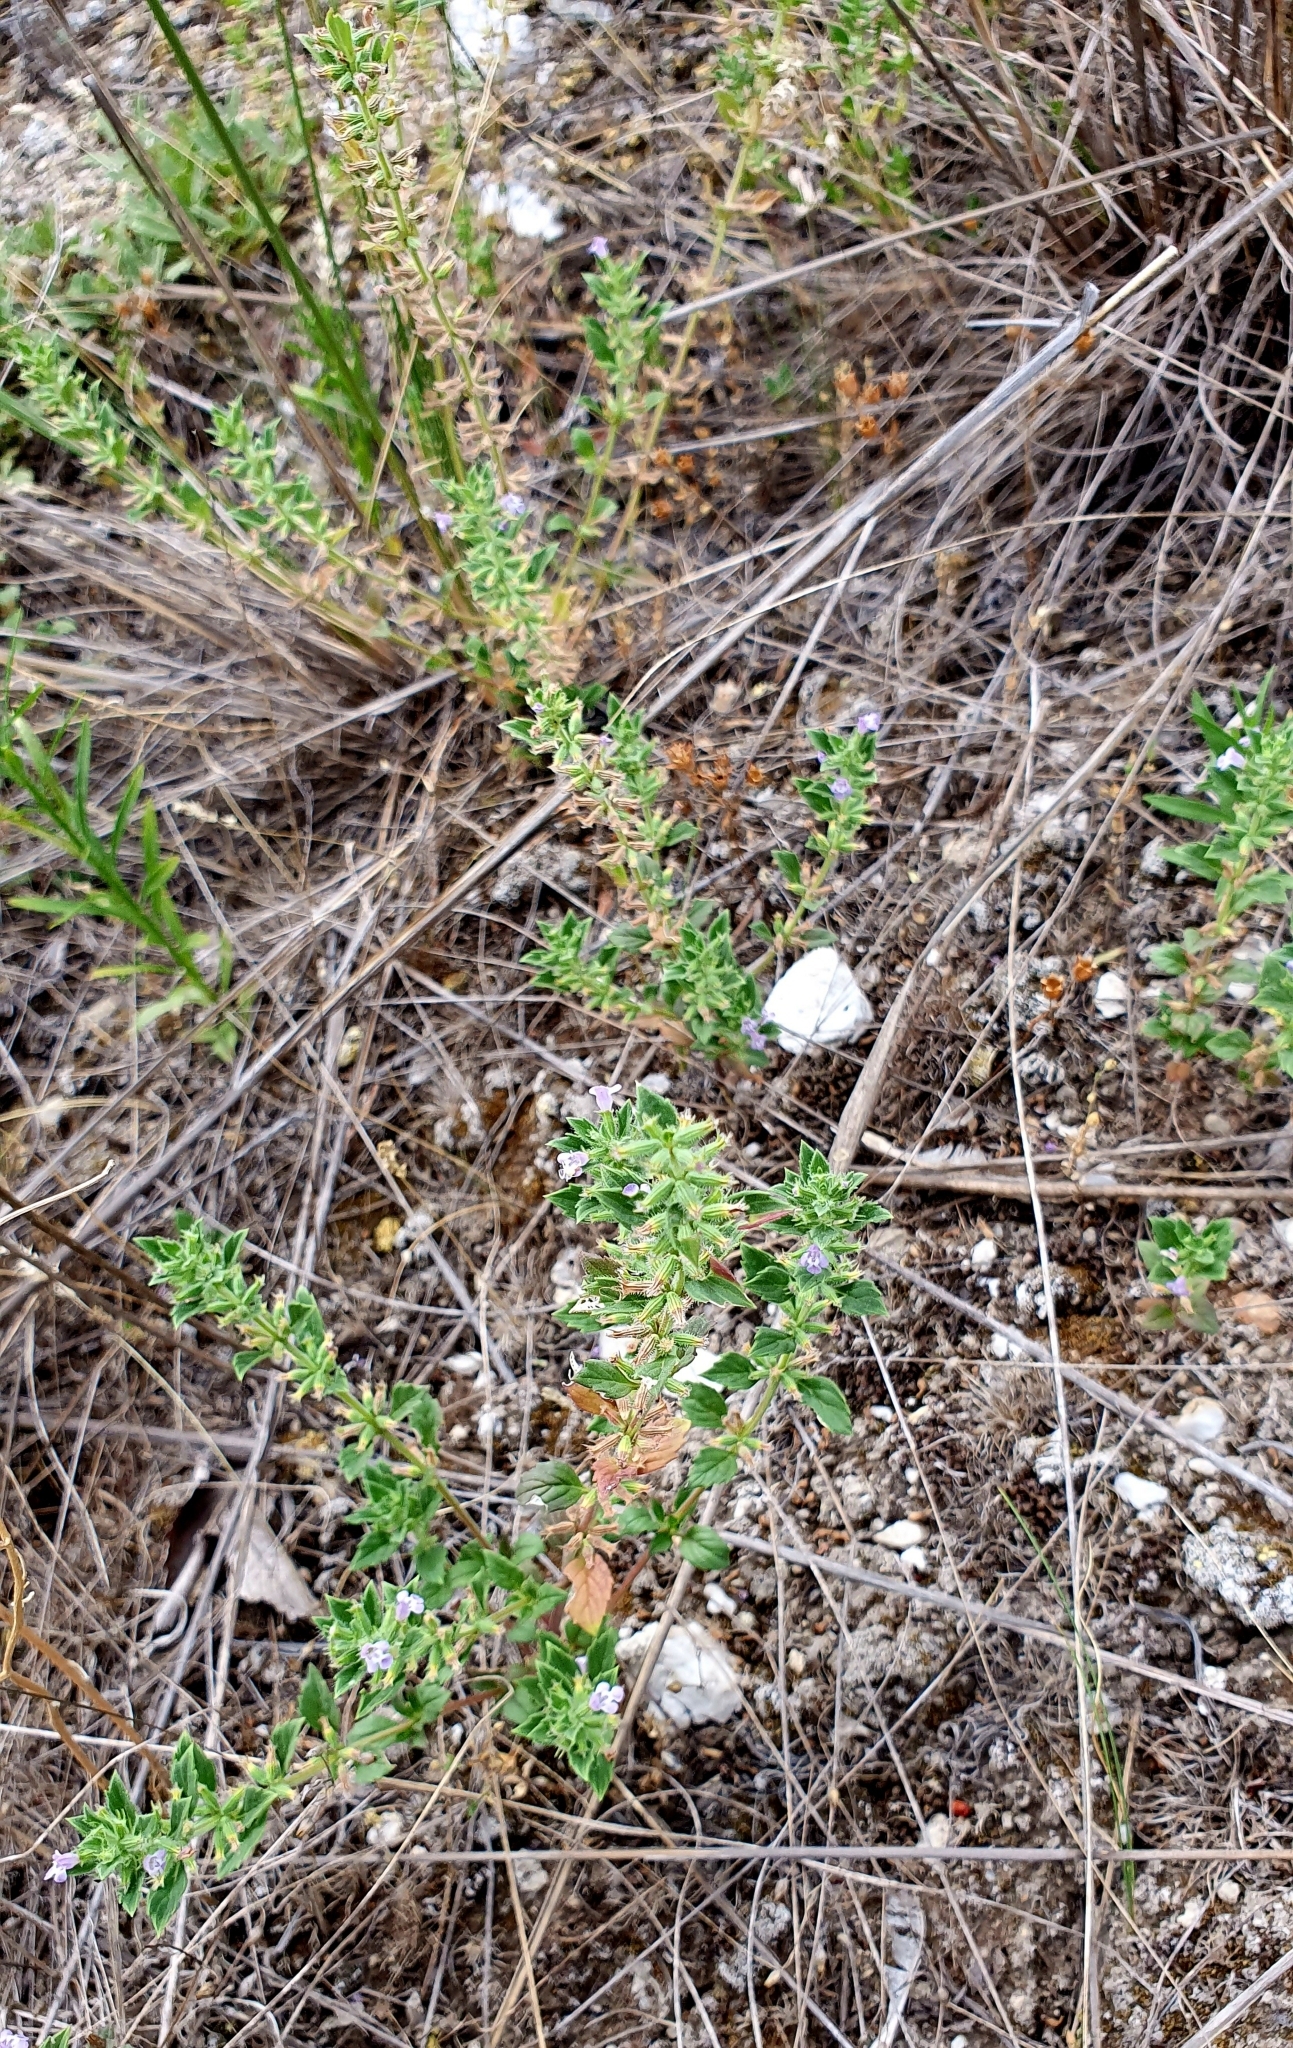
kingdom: Plantae
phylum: Tracheophyta
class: Magnoliopsida
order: Lamiales
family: Lamiaceae
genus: Clinopodium
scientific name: Clinopodium acinos
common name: Basil thyme
